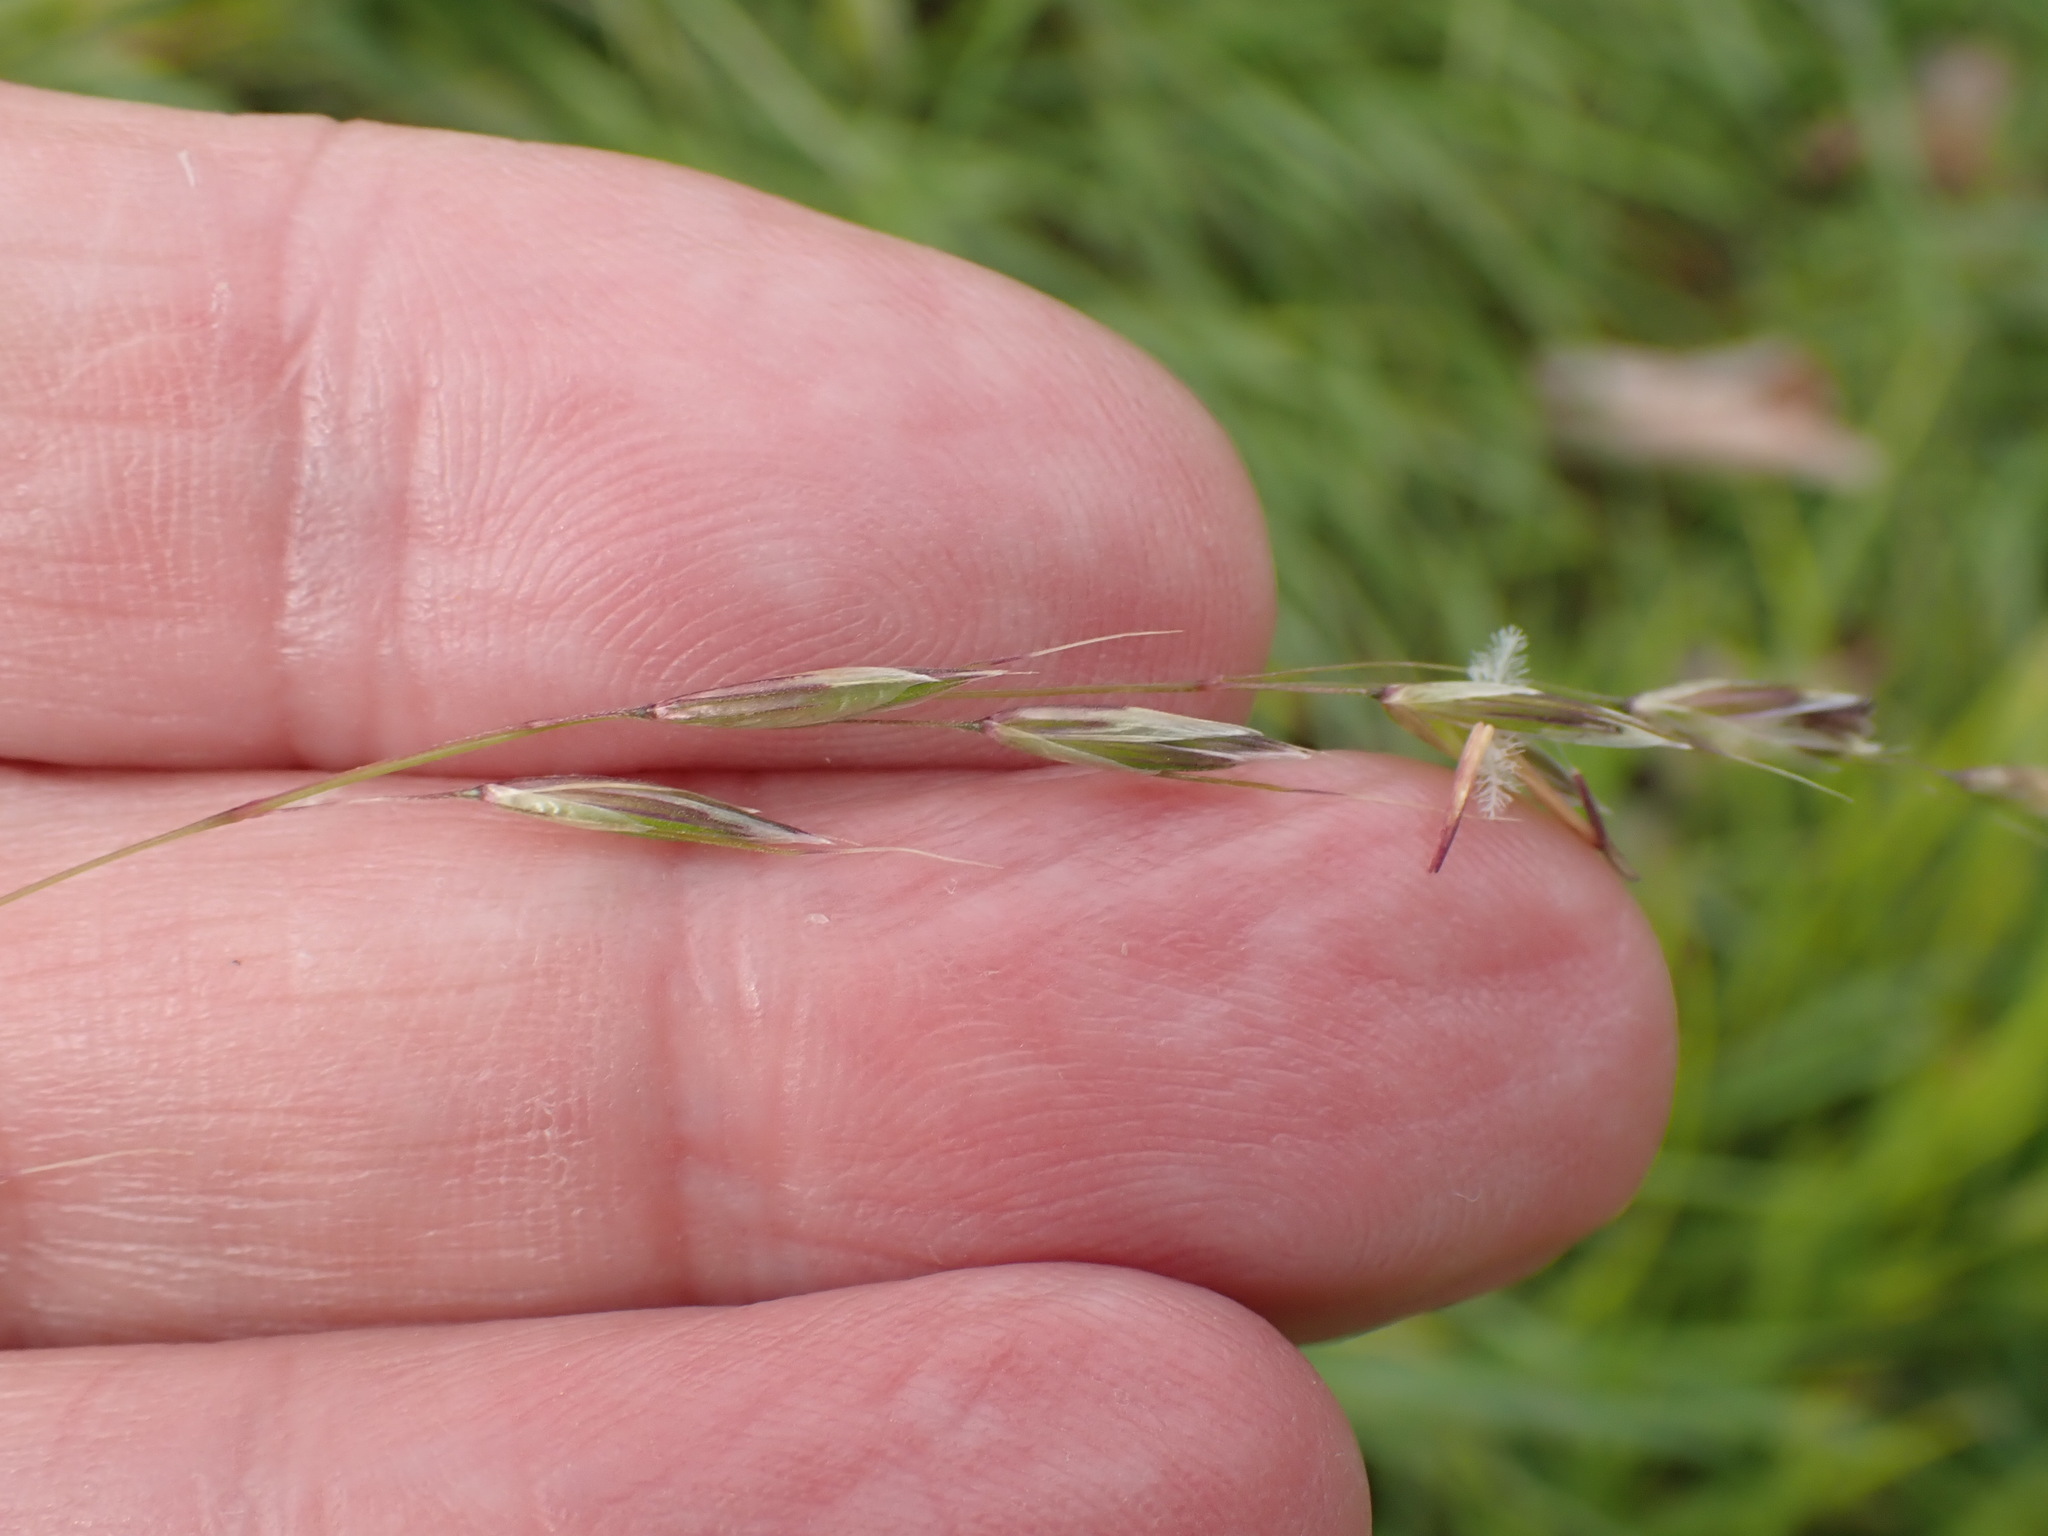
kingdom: Plantae
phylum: Tracheophyta
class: Liliopsida
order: Poales
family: Poaceae
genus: Arrhenatherum
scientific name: Arrhenatherum elatius
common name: Tall oatgrass
